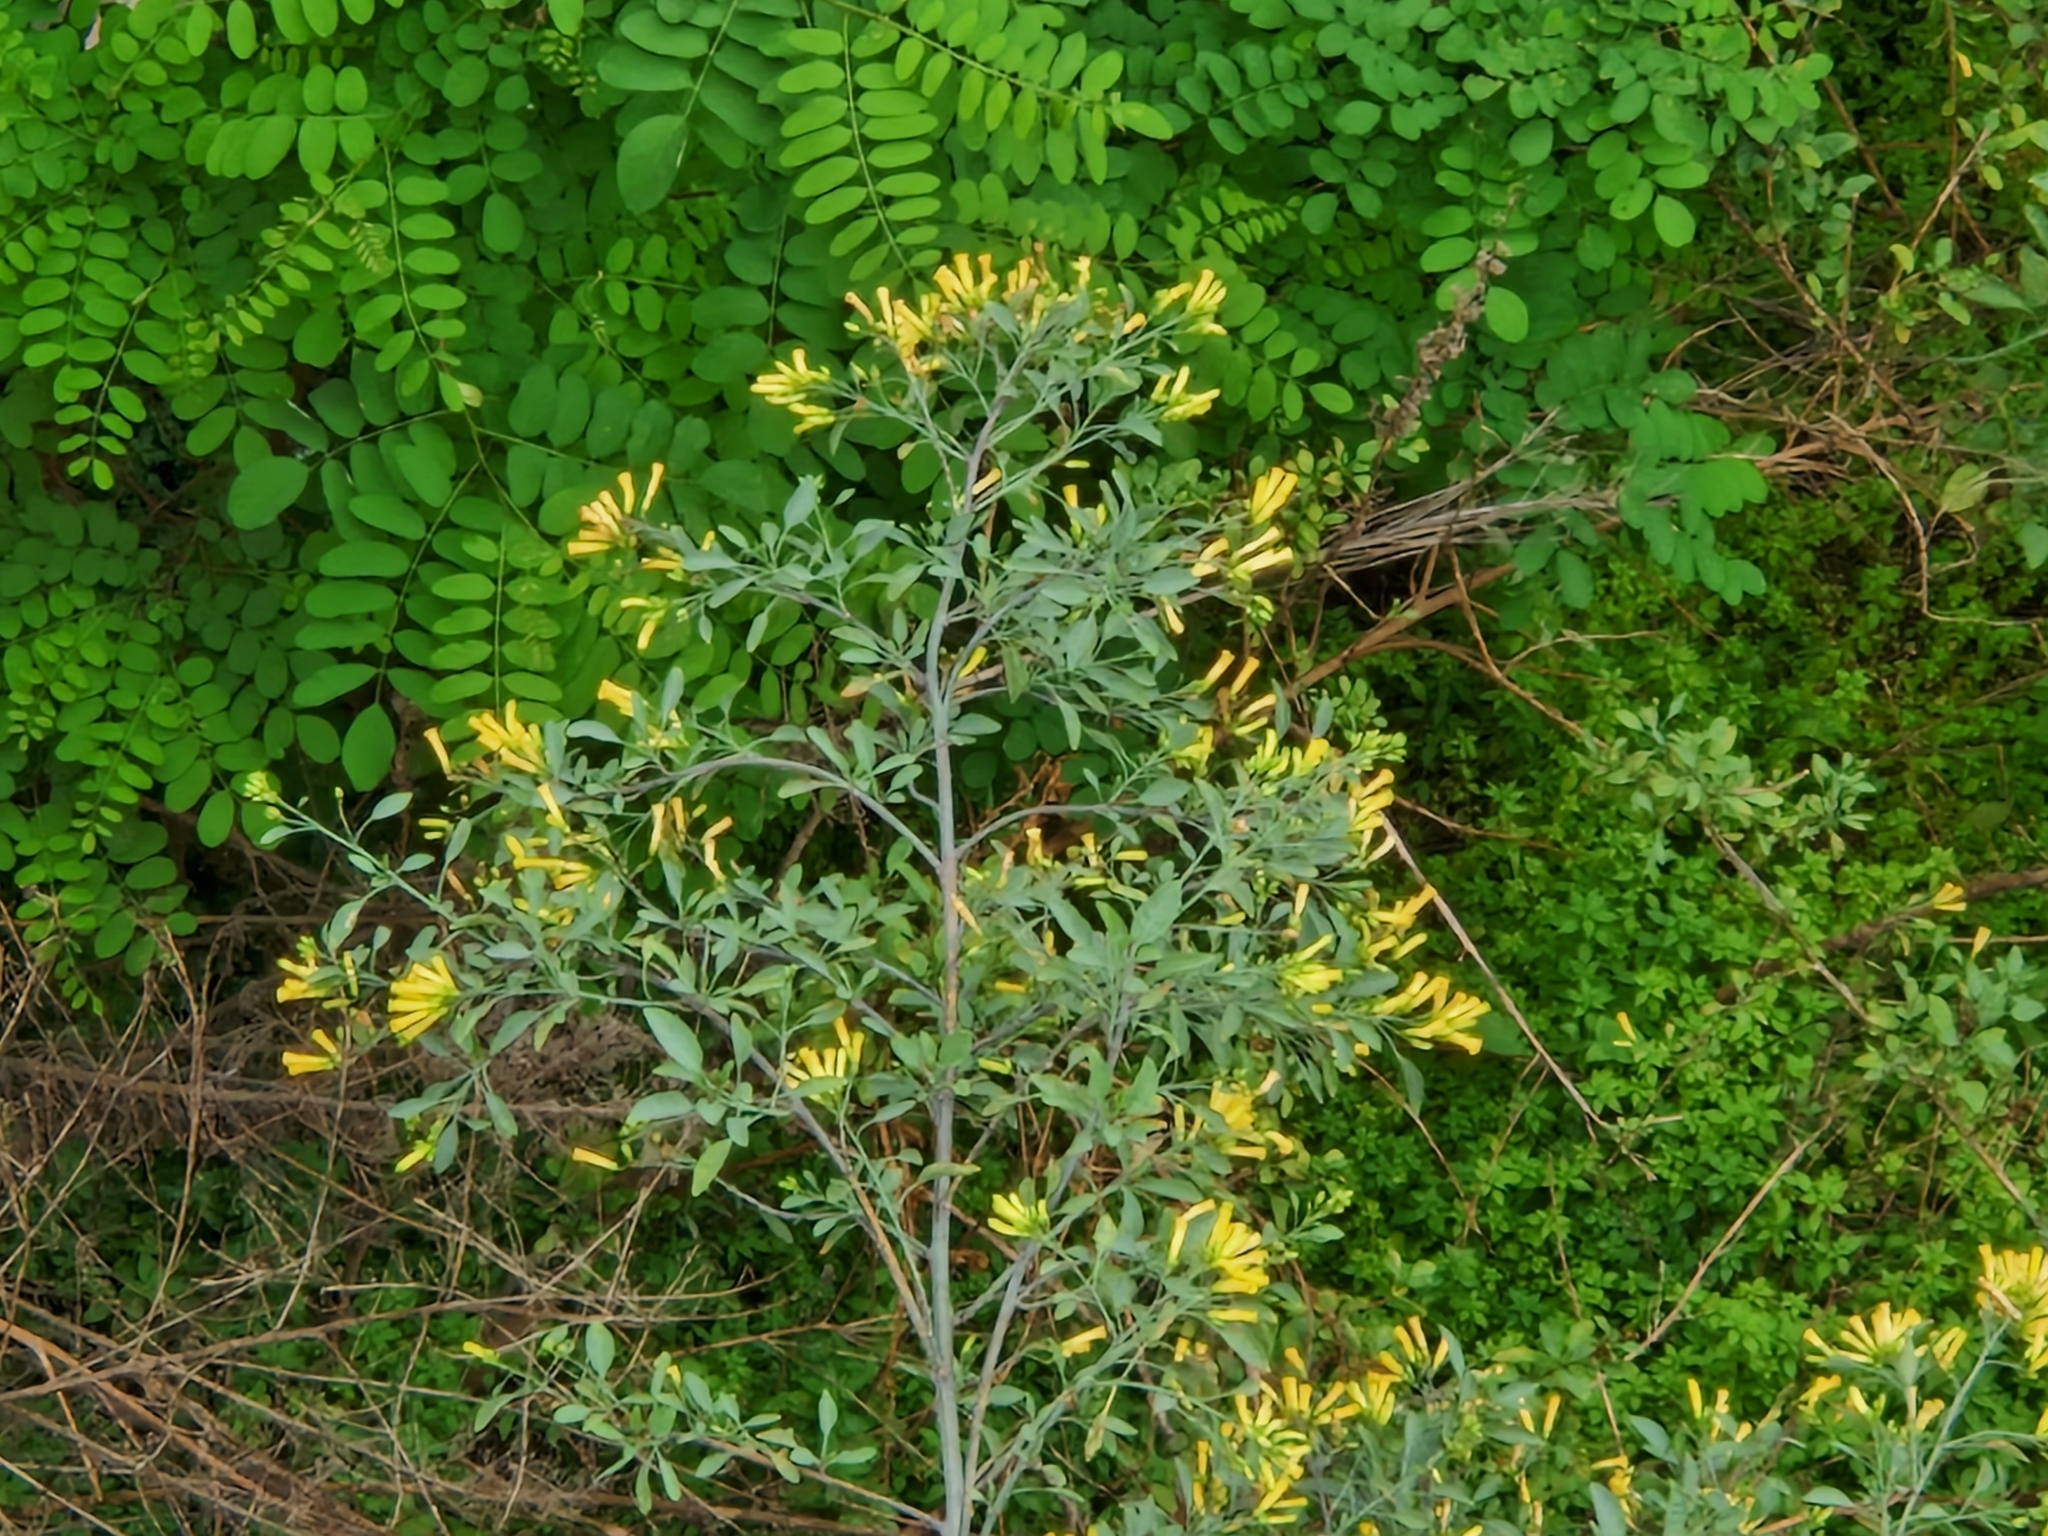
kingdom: Plantae
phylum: Tracheophyta
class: Magnoliopsida
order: Solanales
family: Solanaceae
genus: Nicotiana
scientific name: Nicotiana glauca
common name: Tree tobacco
